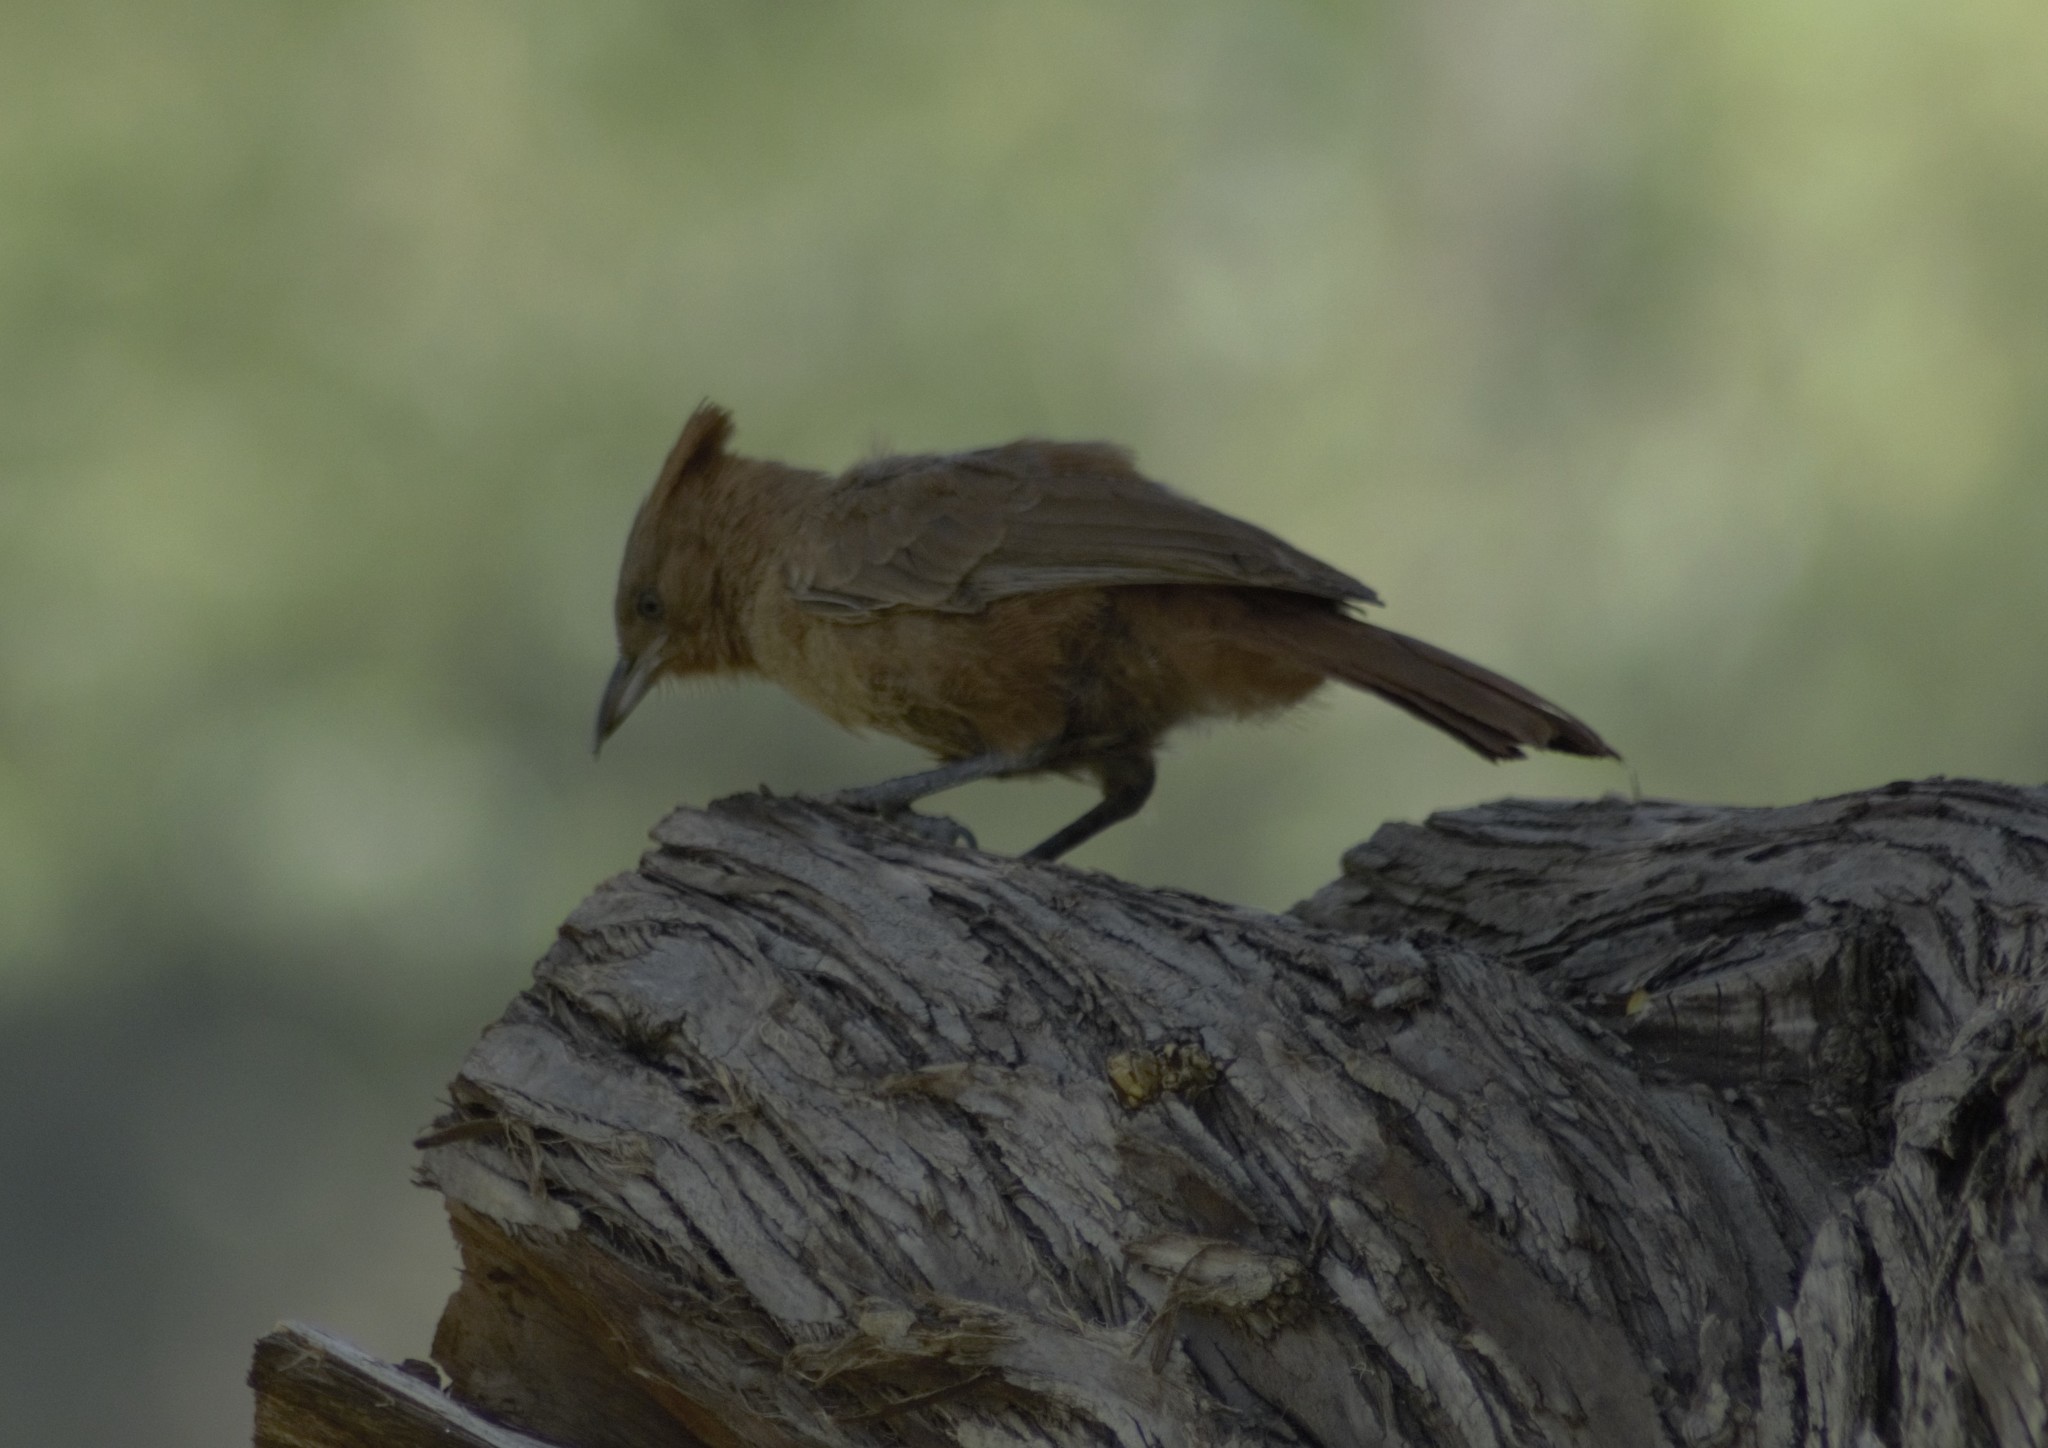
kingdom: Animalia
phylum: Chordata
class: Aves
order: Passeriformes
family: Furnariidae
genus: Pseudoseisura
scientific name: Pseudoseisura lophotes
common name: Brown cacholote
